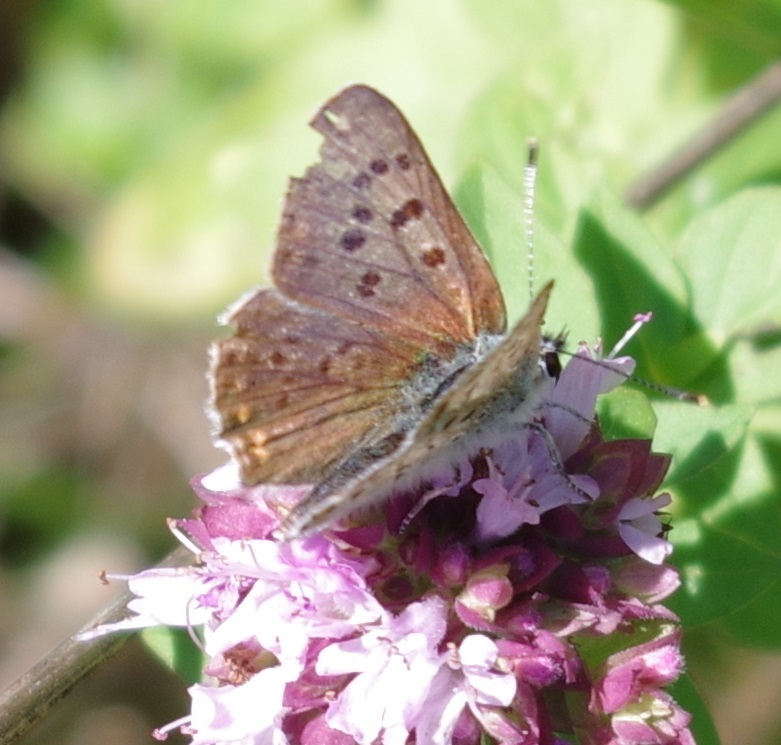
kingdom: Animalia
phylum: Arthropoda
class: Insecta
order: Lepidoptera
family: Lycaenidae
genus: Loweia
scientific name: Loweia tityrus
